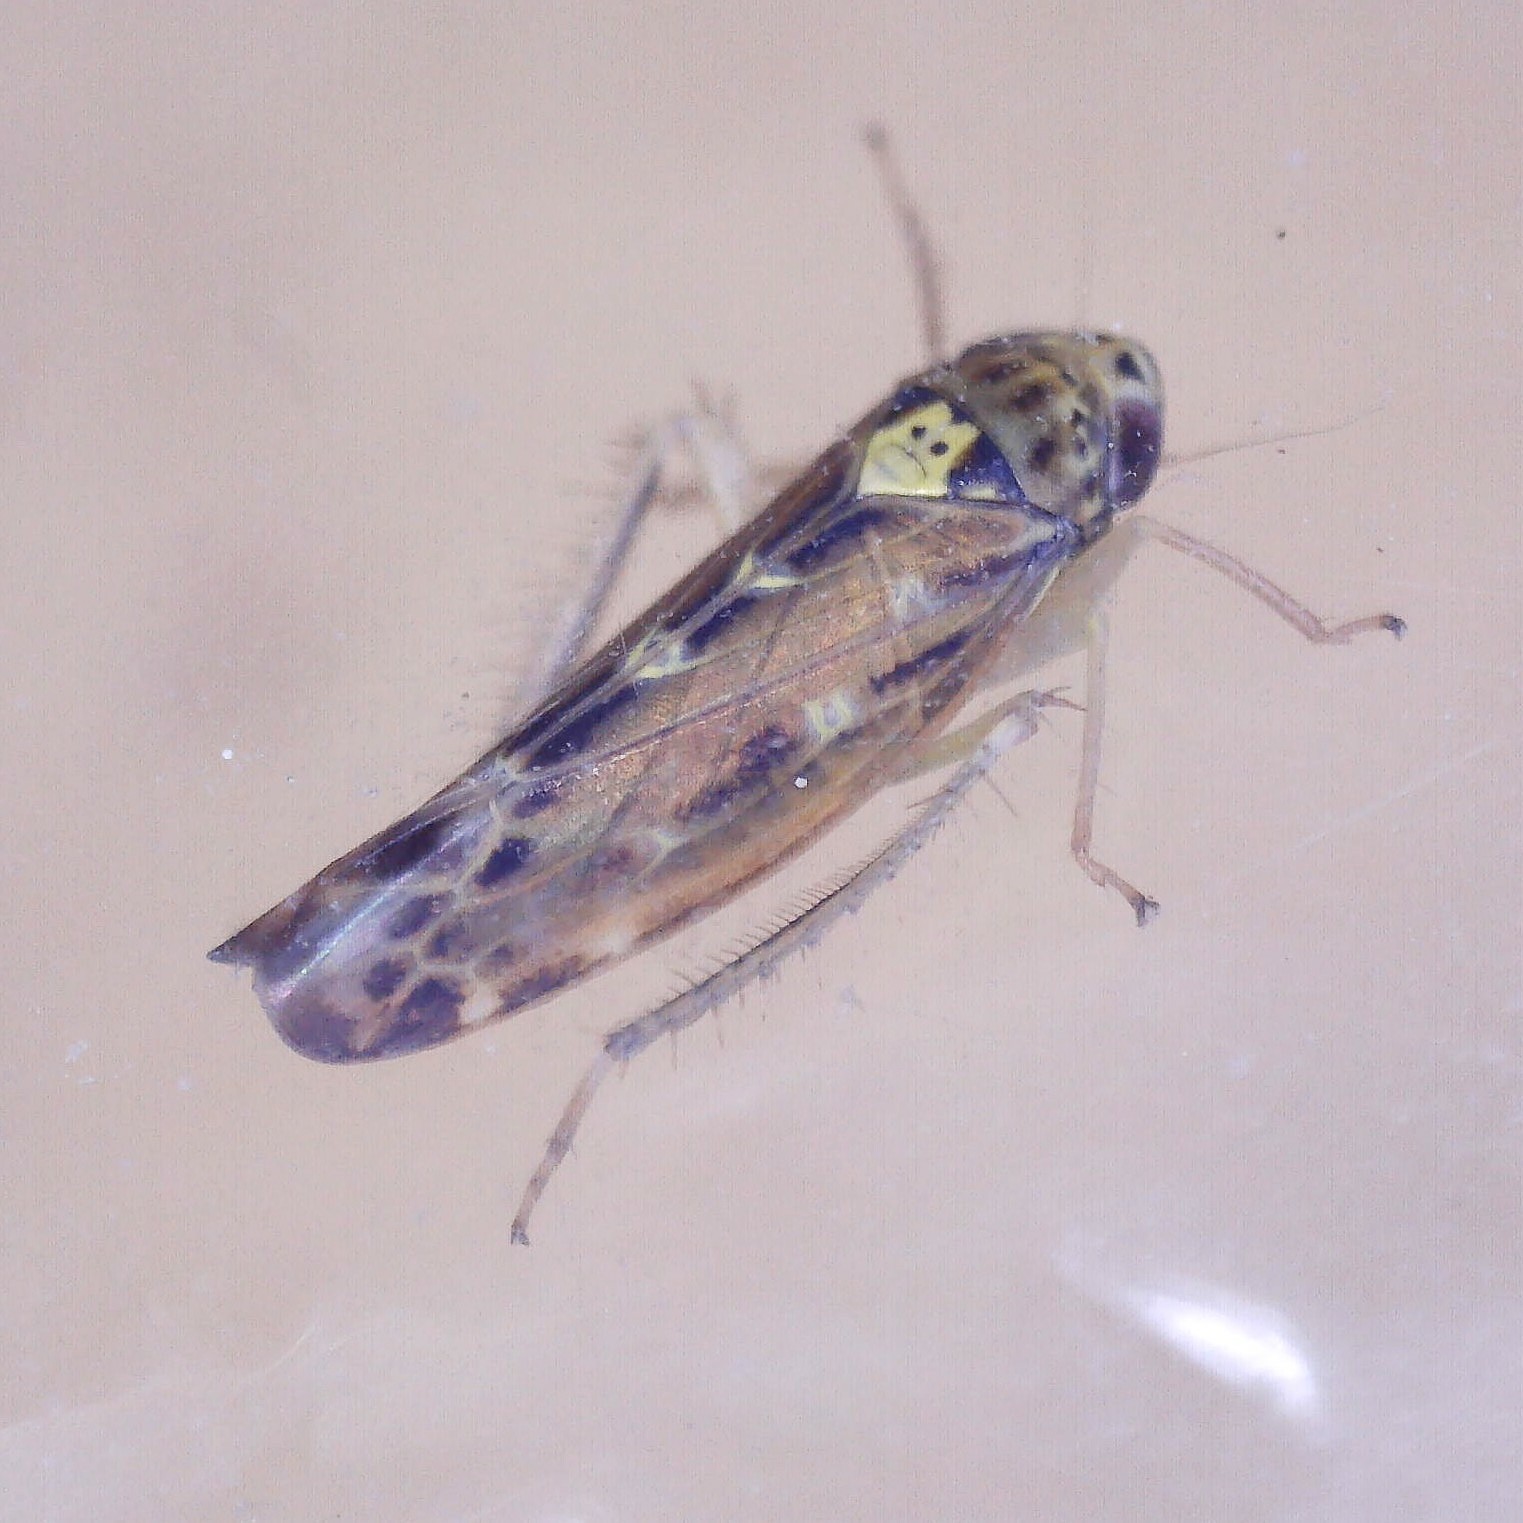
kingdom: Animalia
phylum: Arthropoda
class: Insecta
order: Hemiptera
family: Cicadellidae
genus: Lamprotettix
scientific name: Lamprotettix nitidulus
